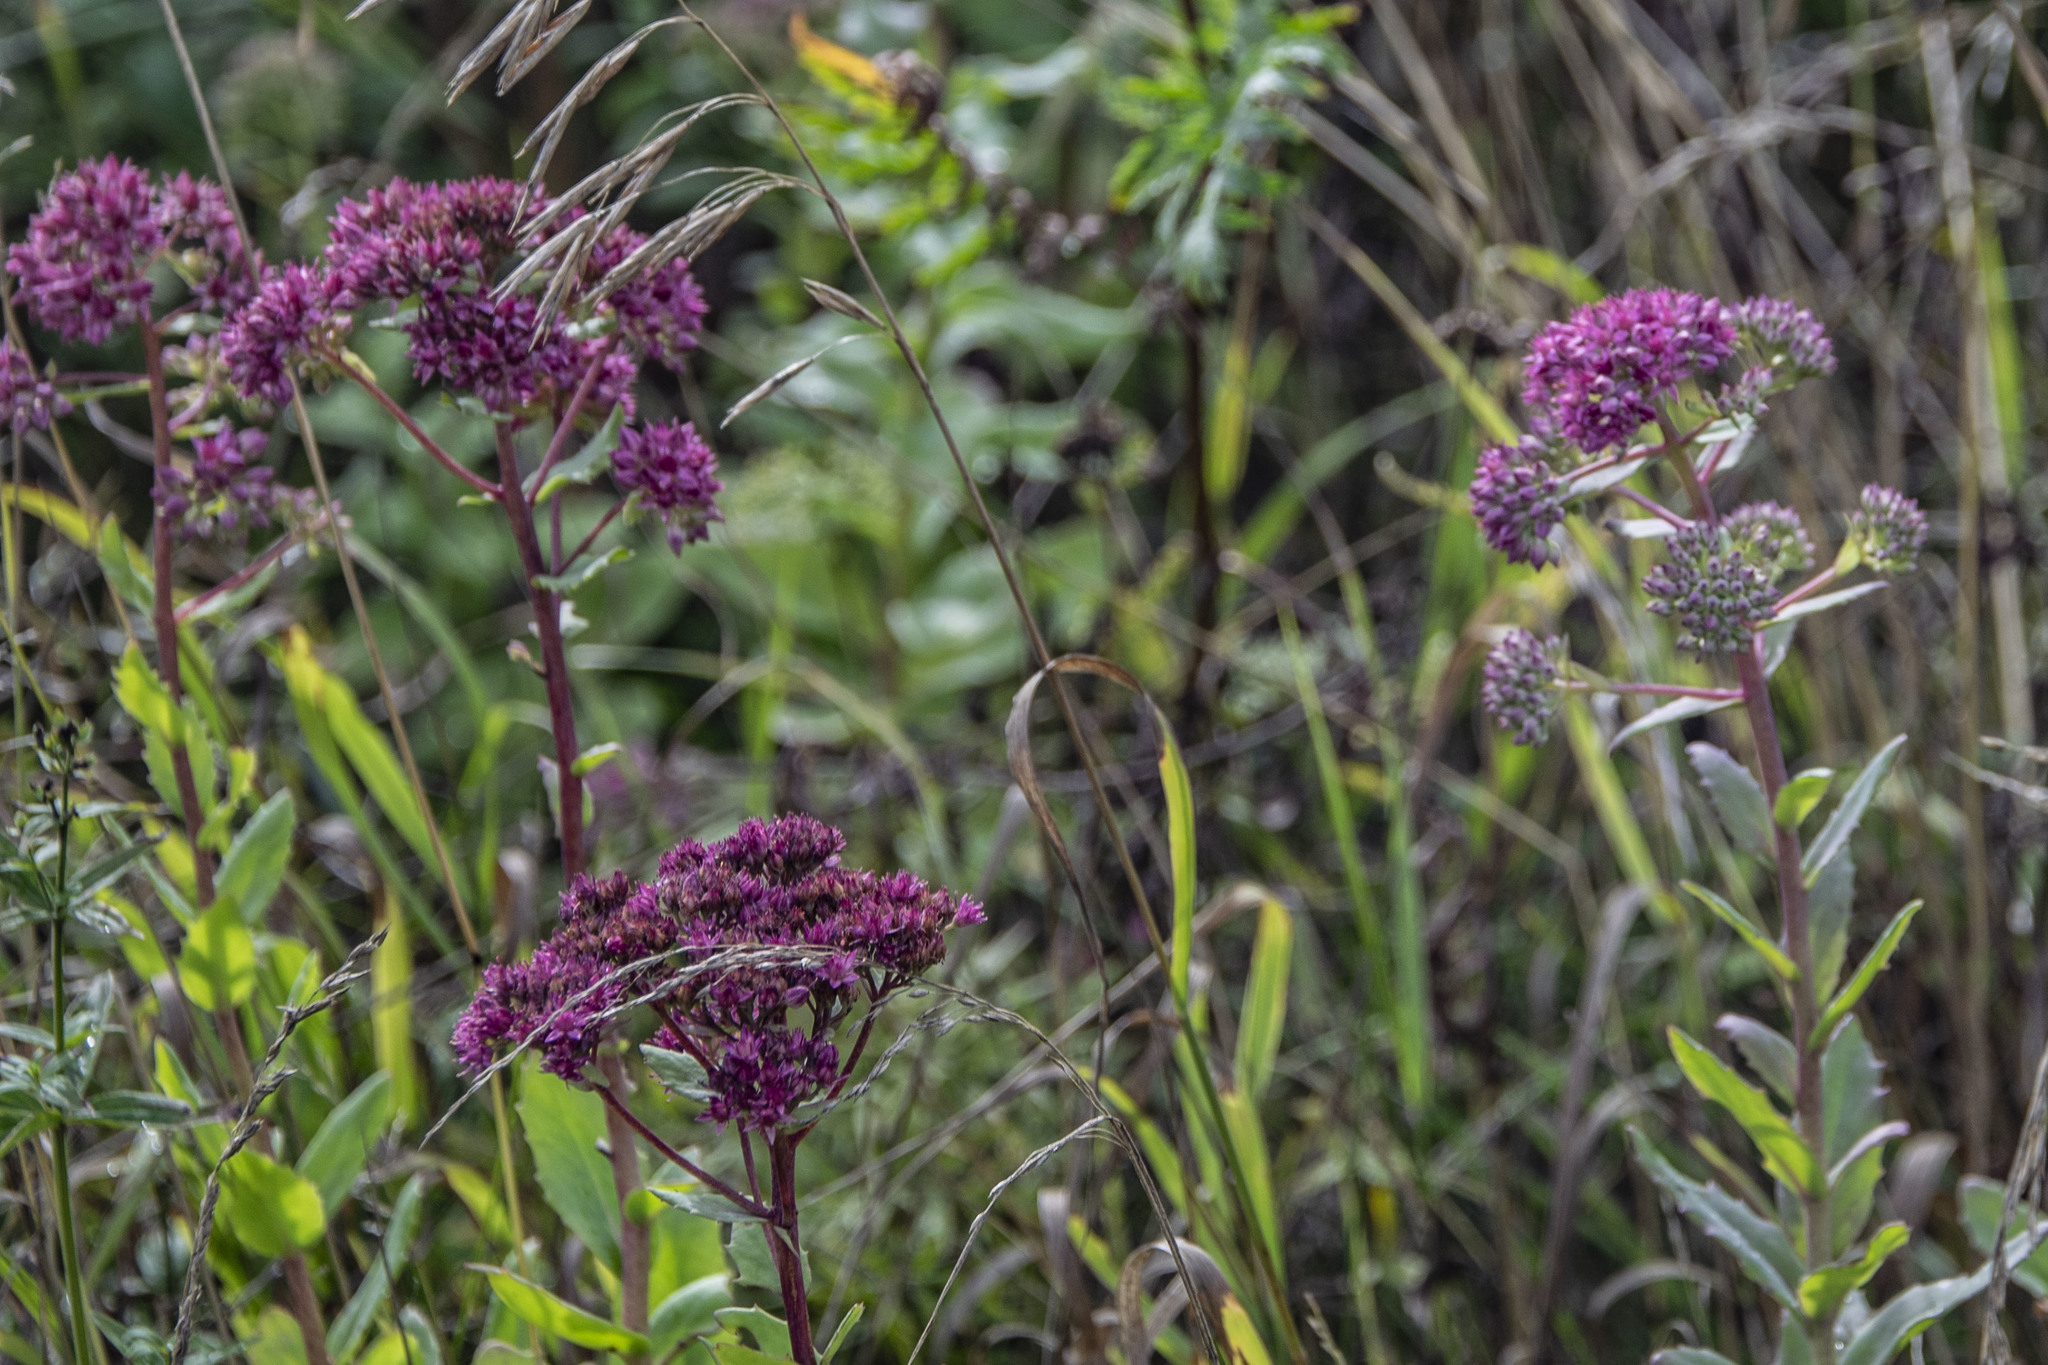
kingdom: Plantae
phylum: Tracheophyta
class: Magnoliopsida
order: Saxifragales
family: Crassulaceae
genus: Hylotelephium
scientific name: Hylotelephium telephium
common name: Live-forever
